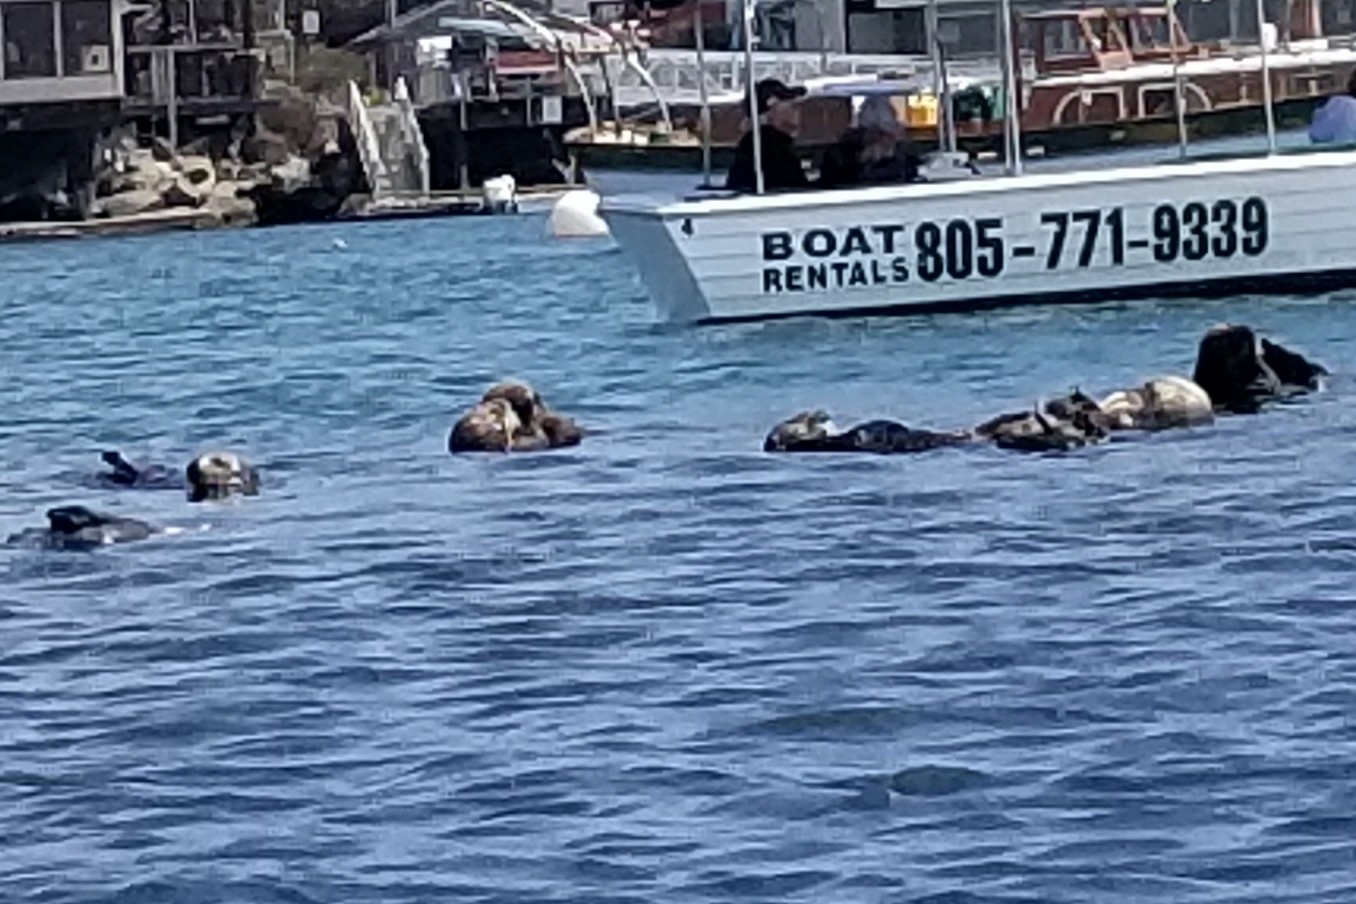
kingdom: Animalia
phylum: Chordata
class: Mammalia
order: Carnivora
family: Mustelidae
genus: Enhydra
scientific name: Enhydra lutris
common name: Sea otter
